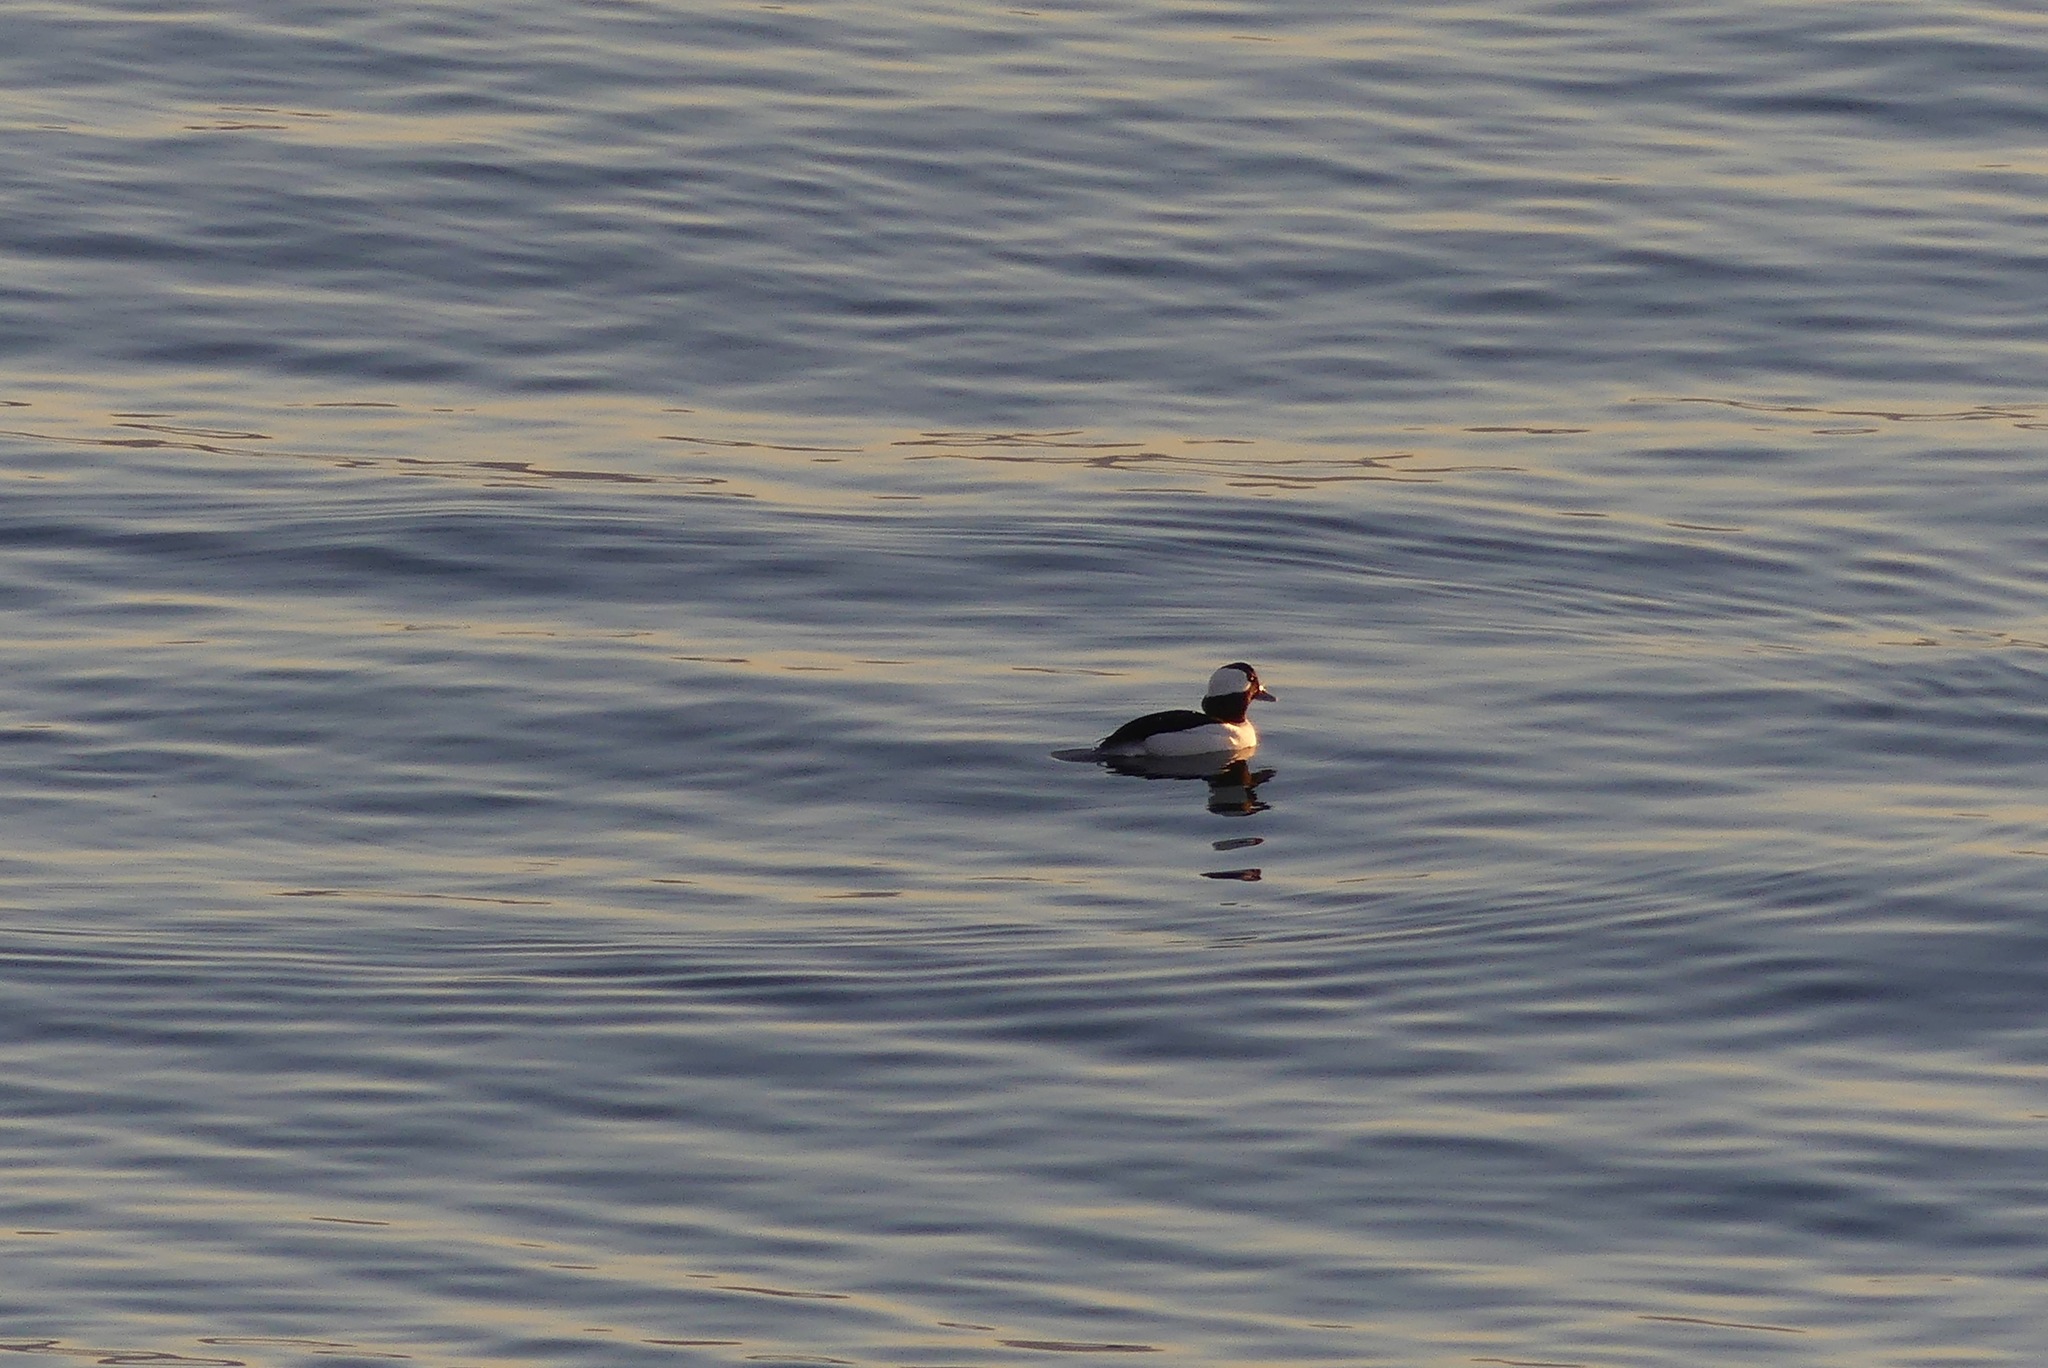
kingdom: Animalia
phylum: Chordata
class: Aves
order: Anseriformes
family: Anatidae
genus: Bucephala
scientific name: Bucephala albeola
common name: Bufflehead
